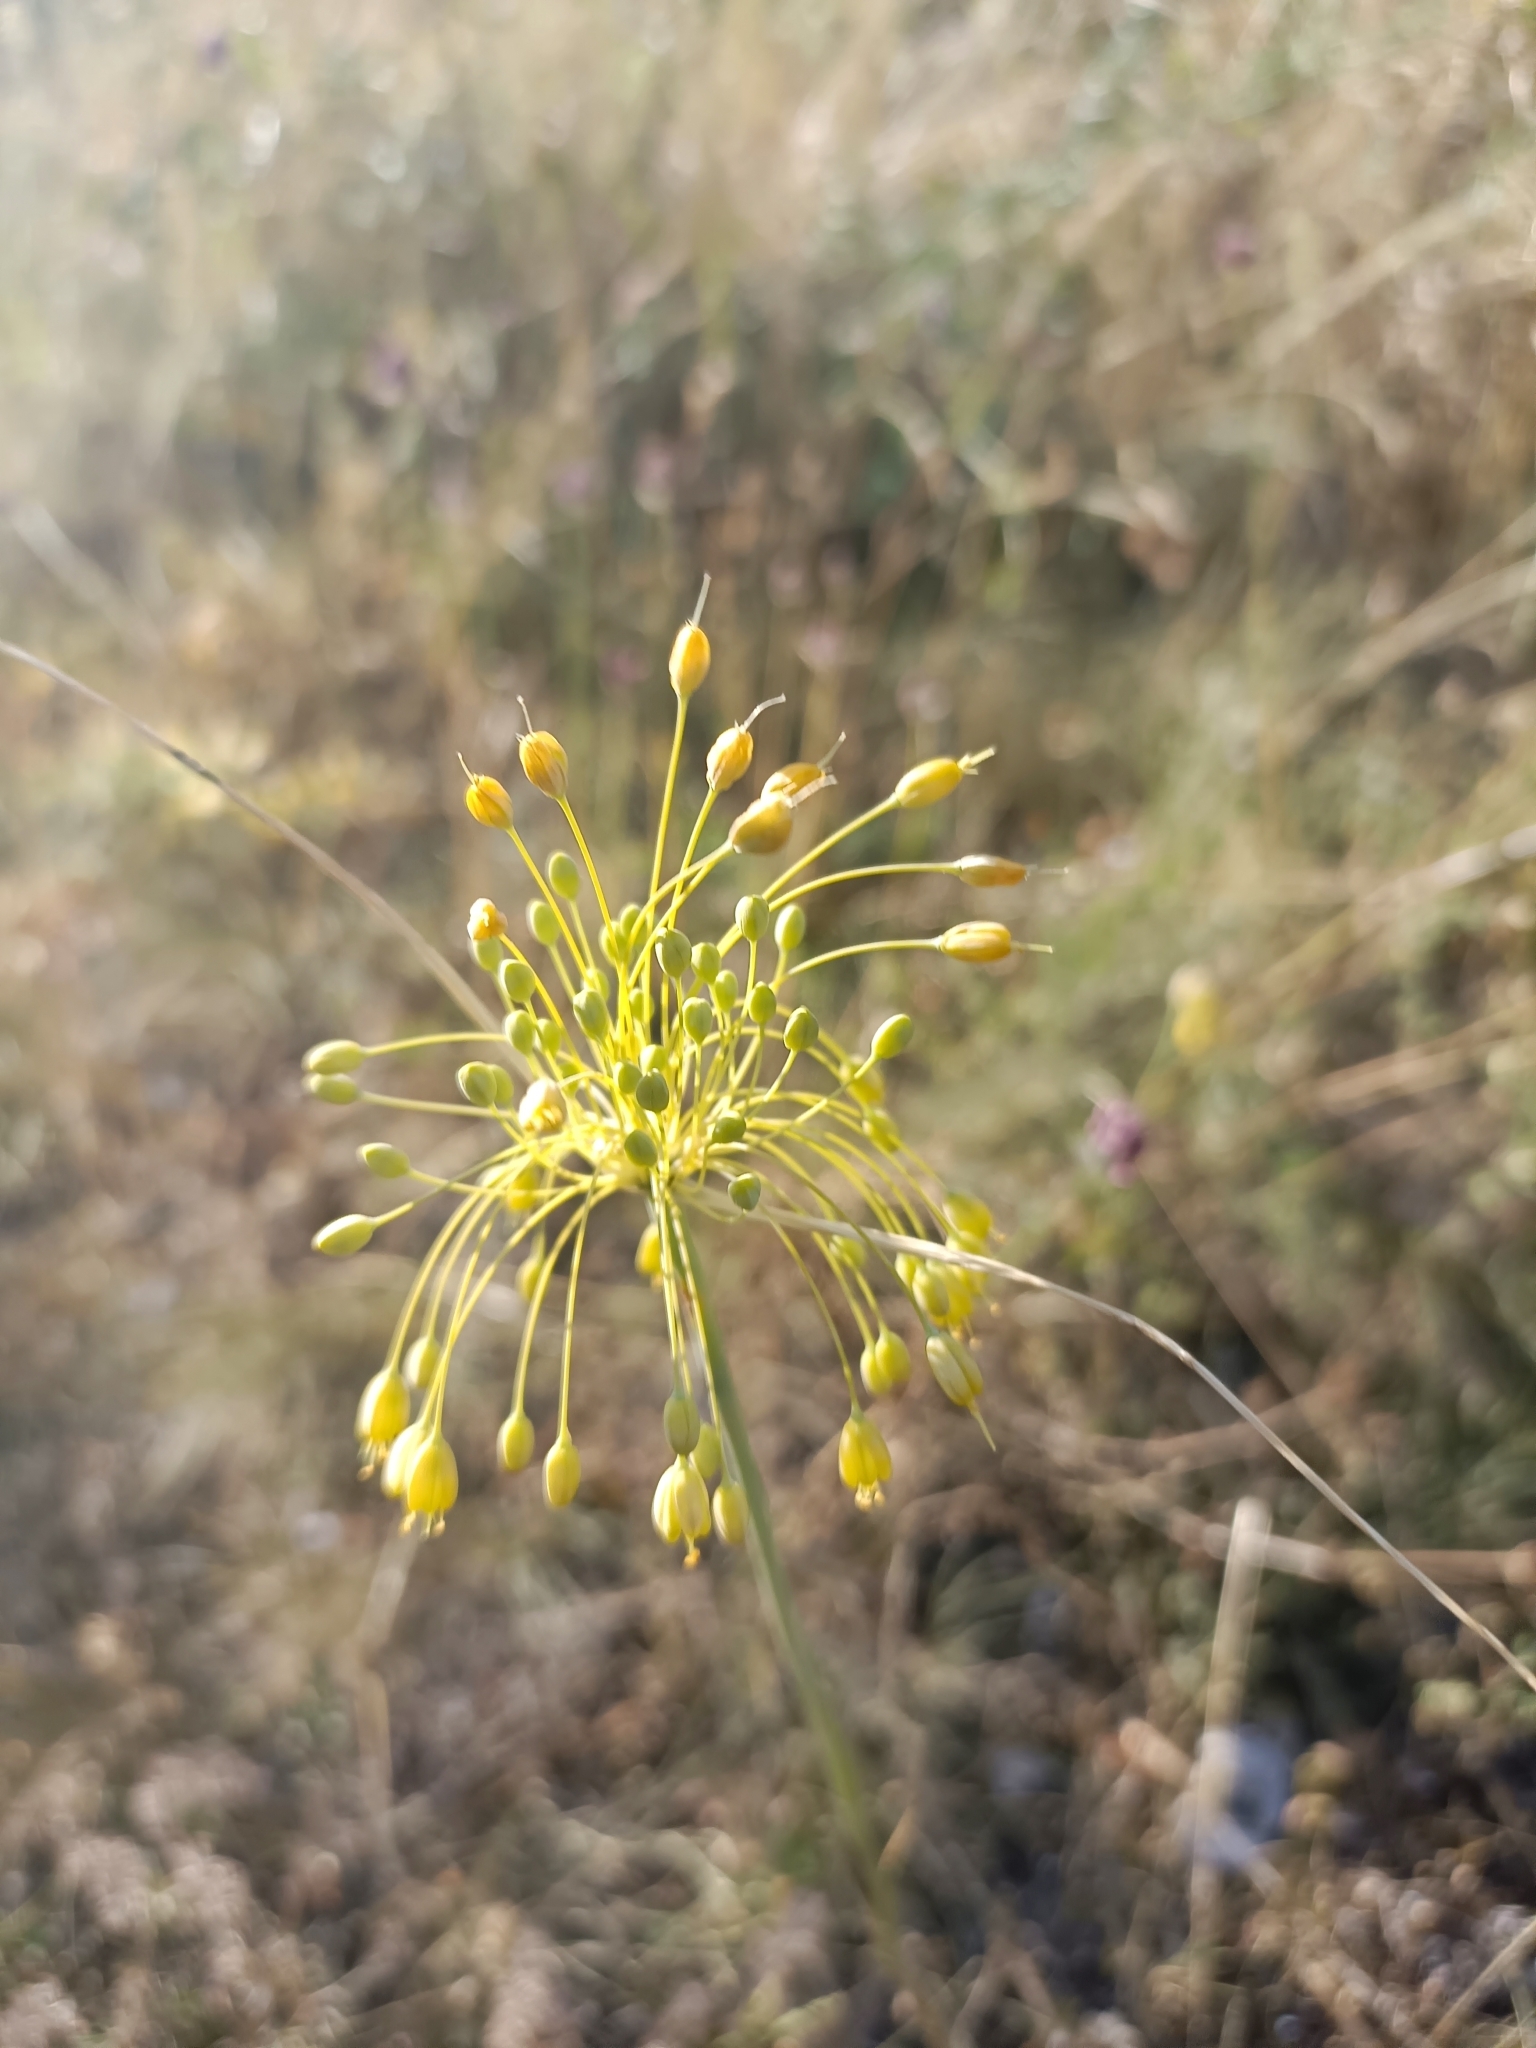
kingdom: Plantae
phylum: Tracheophyta
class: Liliopsida
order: Asparagales
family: Amaryllidaceae
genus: Allium
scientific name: Allium flavum
